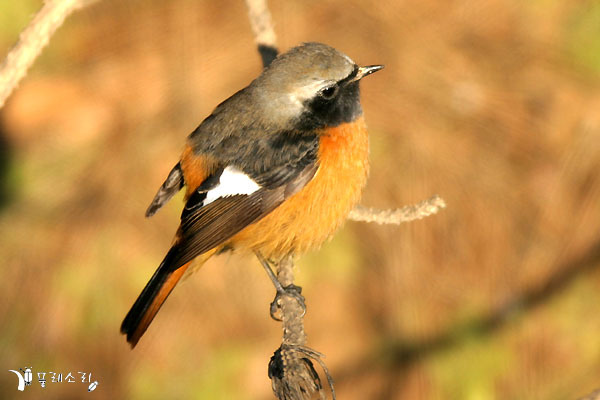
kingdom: Animalia
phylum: Chordata
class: Aves
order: Passeriformes
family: Muscicapidae
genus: Phoenicurus
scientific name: Phoenicurus auroreus
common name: Daurian redstart
